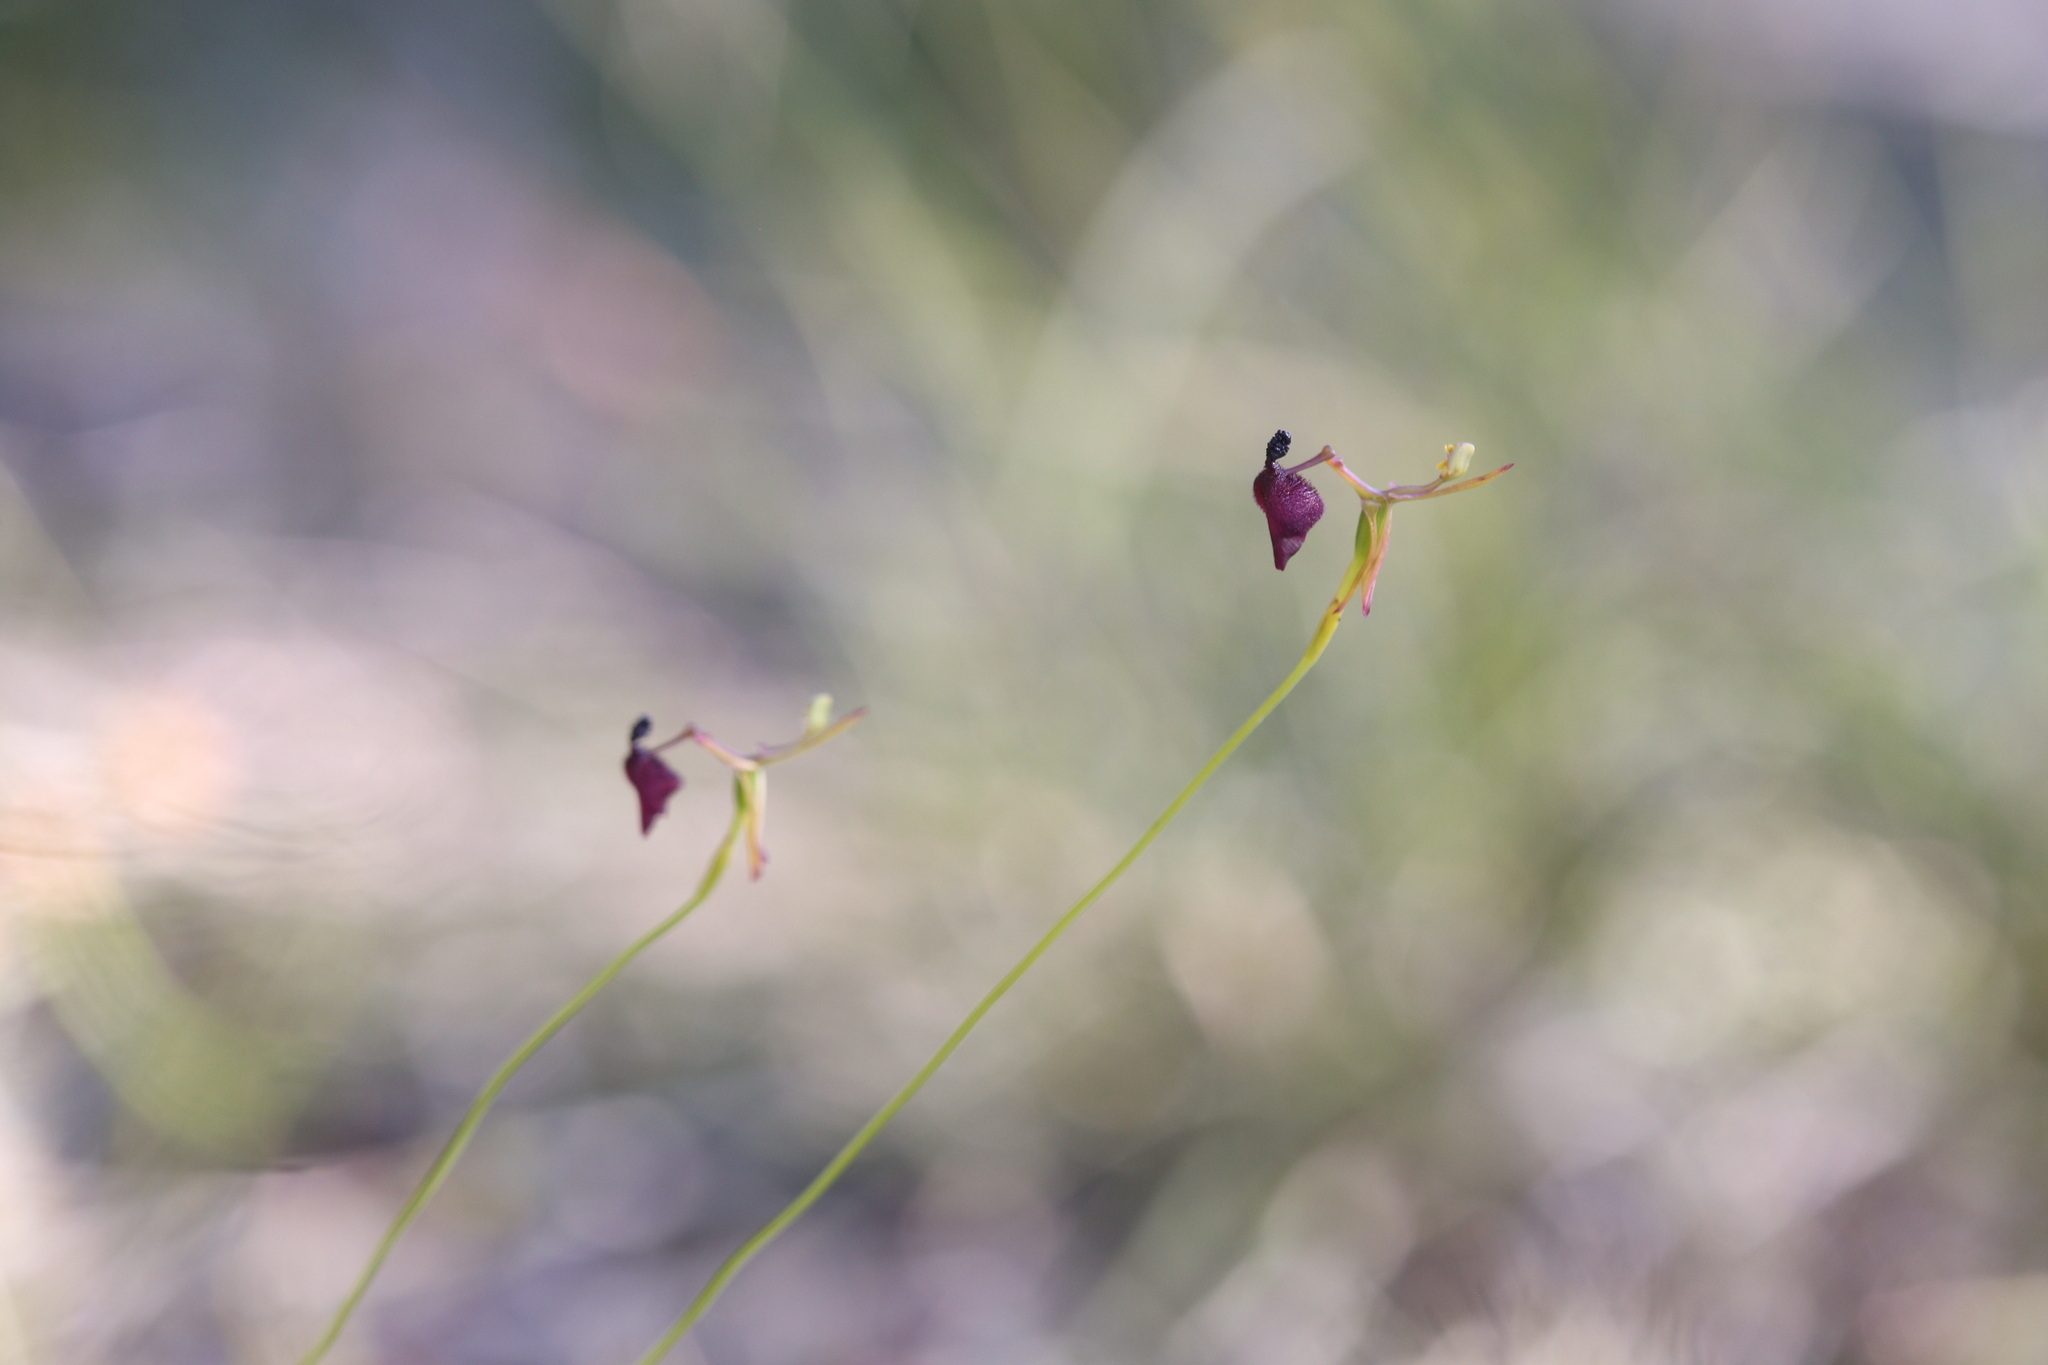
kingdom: Plantae
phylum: Tracheophyta
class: Liliopsida
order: Asparagales
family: Orchidaceae
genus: Drakaea
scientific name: Drakaea glyptodon
